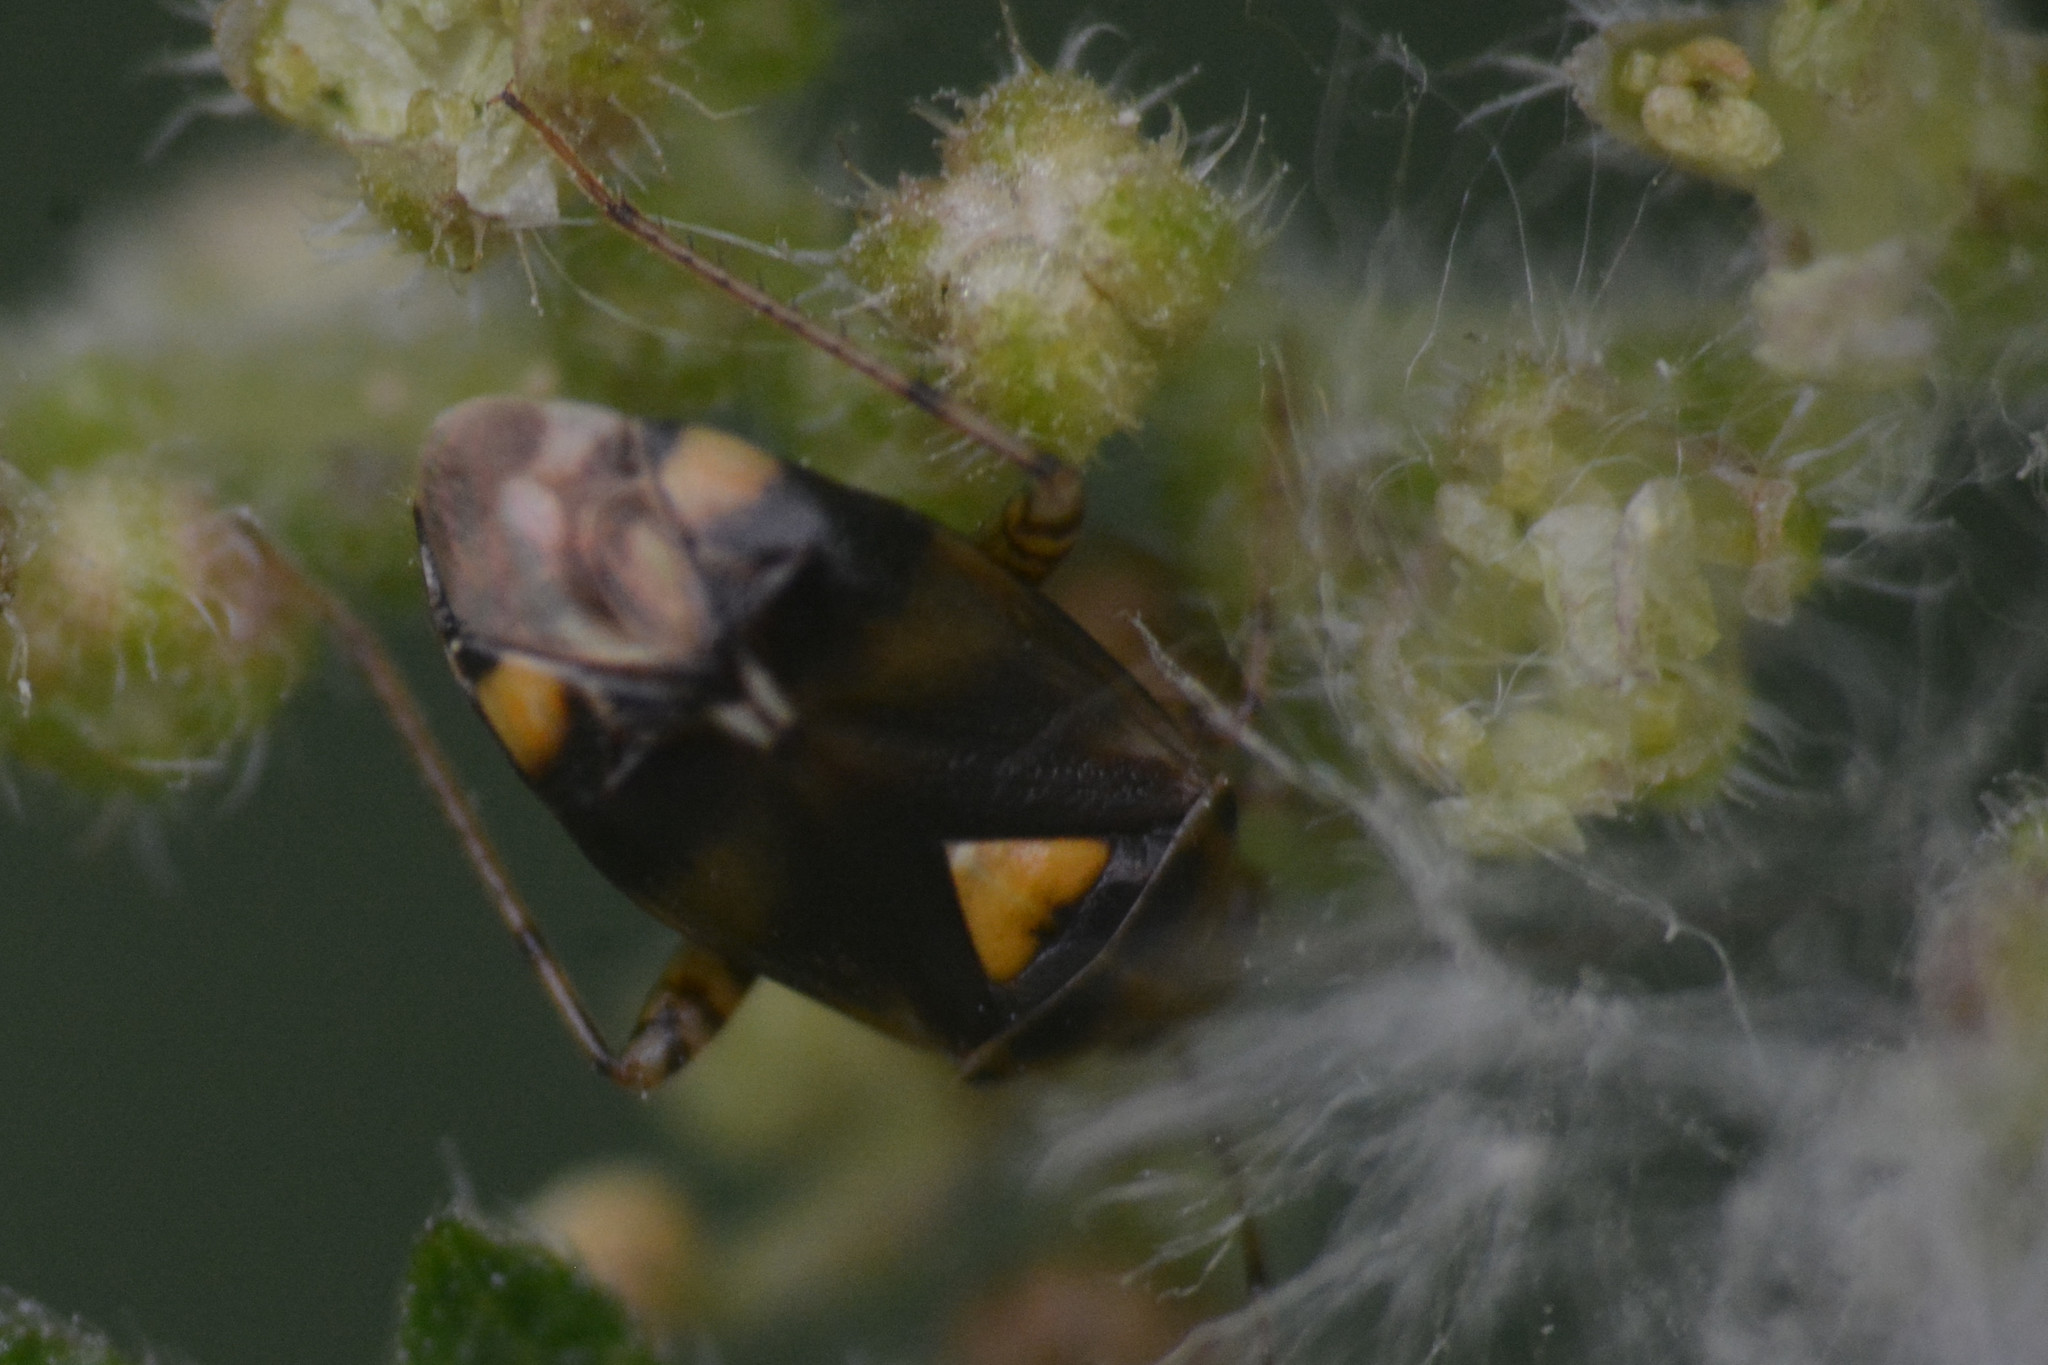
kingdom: Animalia
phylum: Arthropoda
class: Insecta
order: Hemiptera
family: Miridae
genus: Liocoris
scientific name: Liocoris tripustulatus
